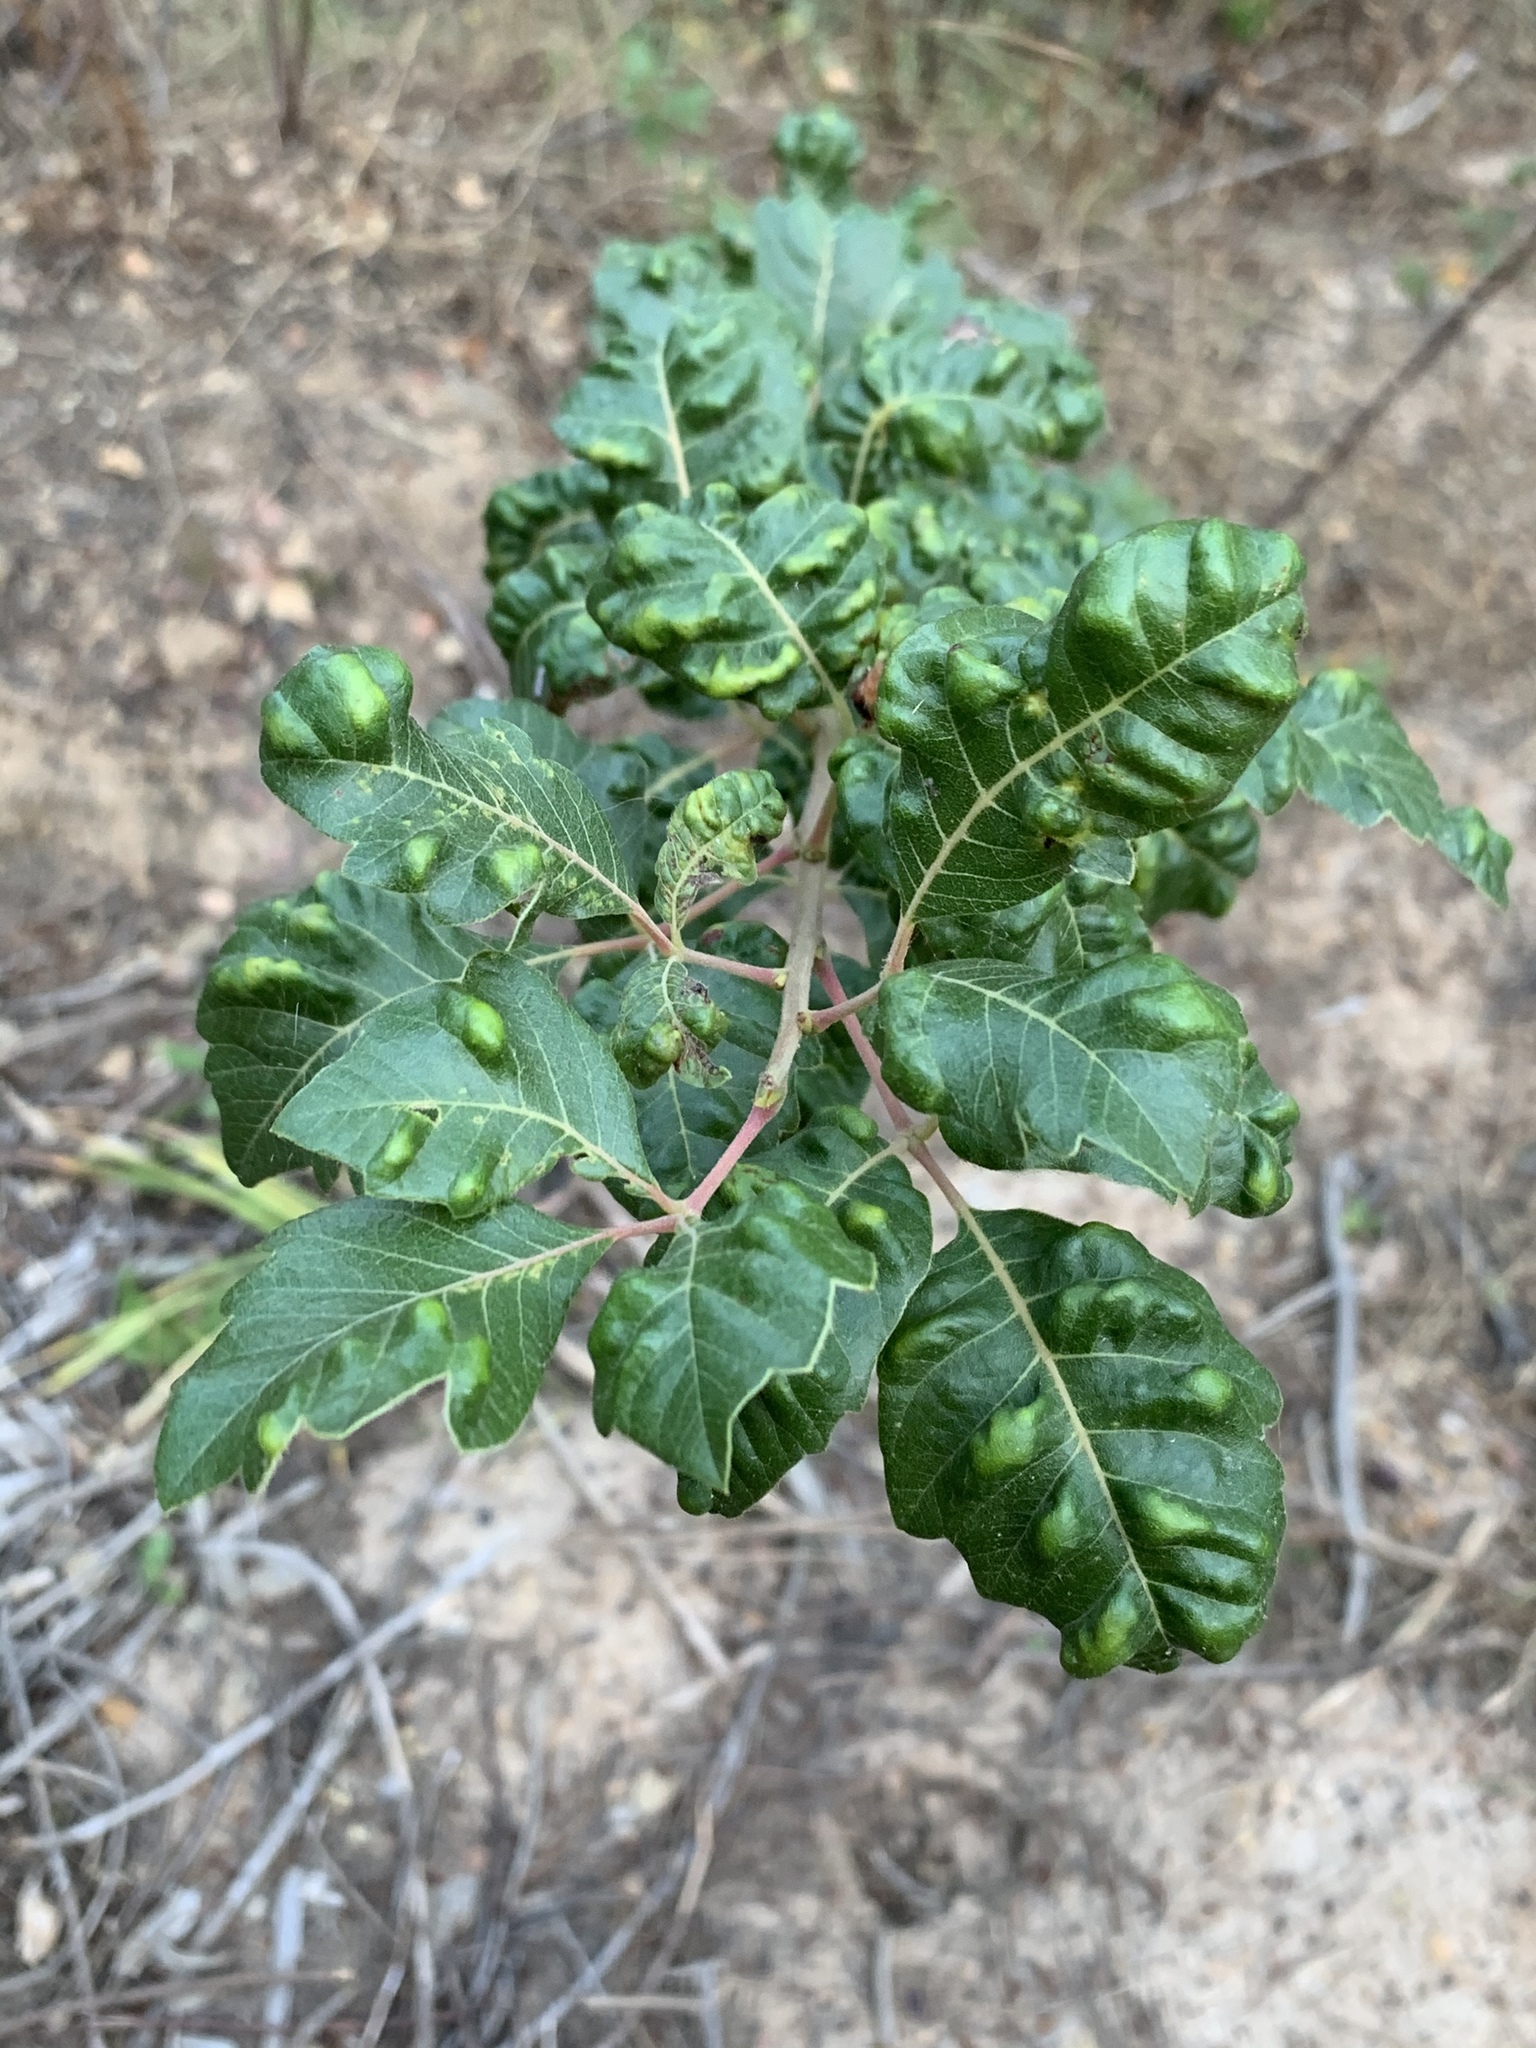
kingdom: Plantae
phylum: Tracheophyta
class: Magnoliopsida
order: Sapindales
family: Anacardiaceae
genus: Searsia
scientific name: Searsia tomentosa
